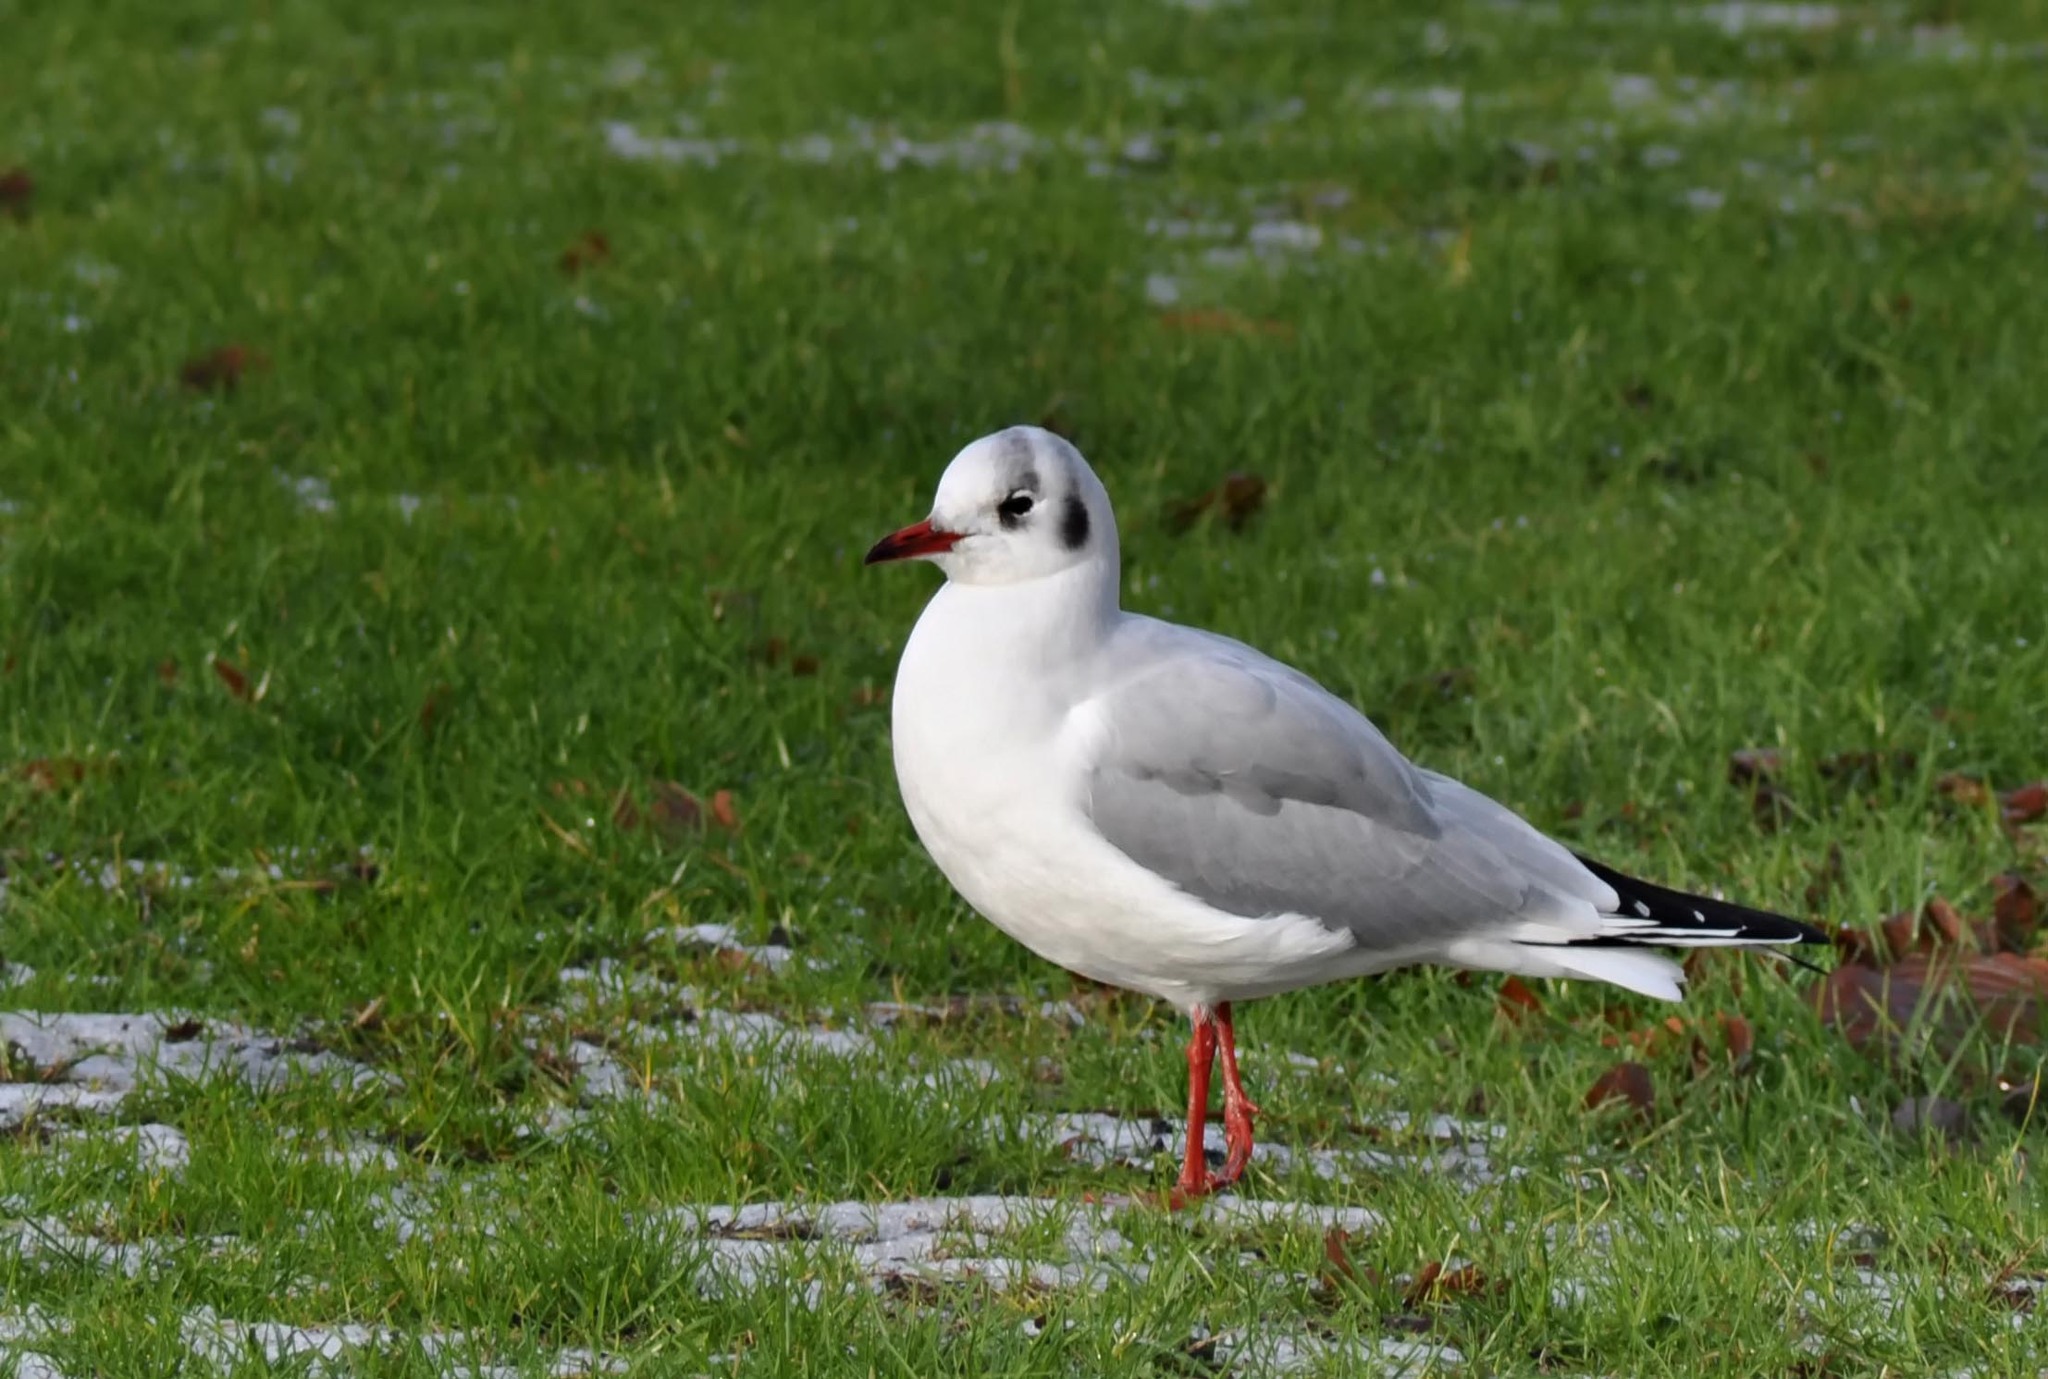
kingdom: Animalia
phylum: Chordata
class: Aves
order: Charadriiformes
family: Laridae
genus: Chroicocephalus
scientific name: Chroicocephalus ridibundus
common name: Black-headed gull
